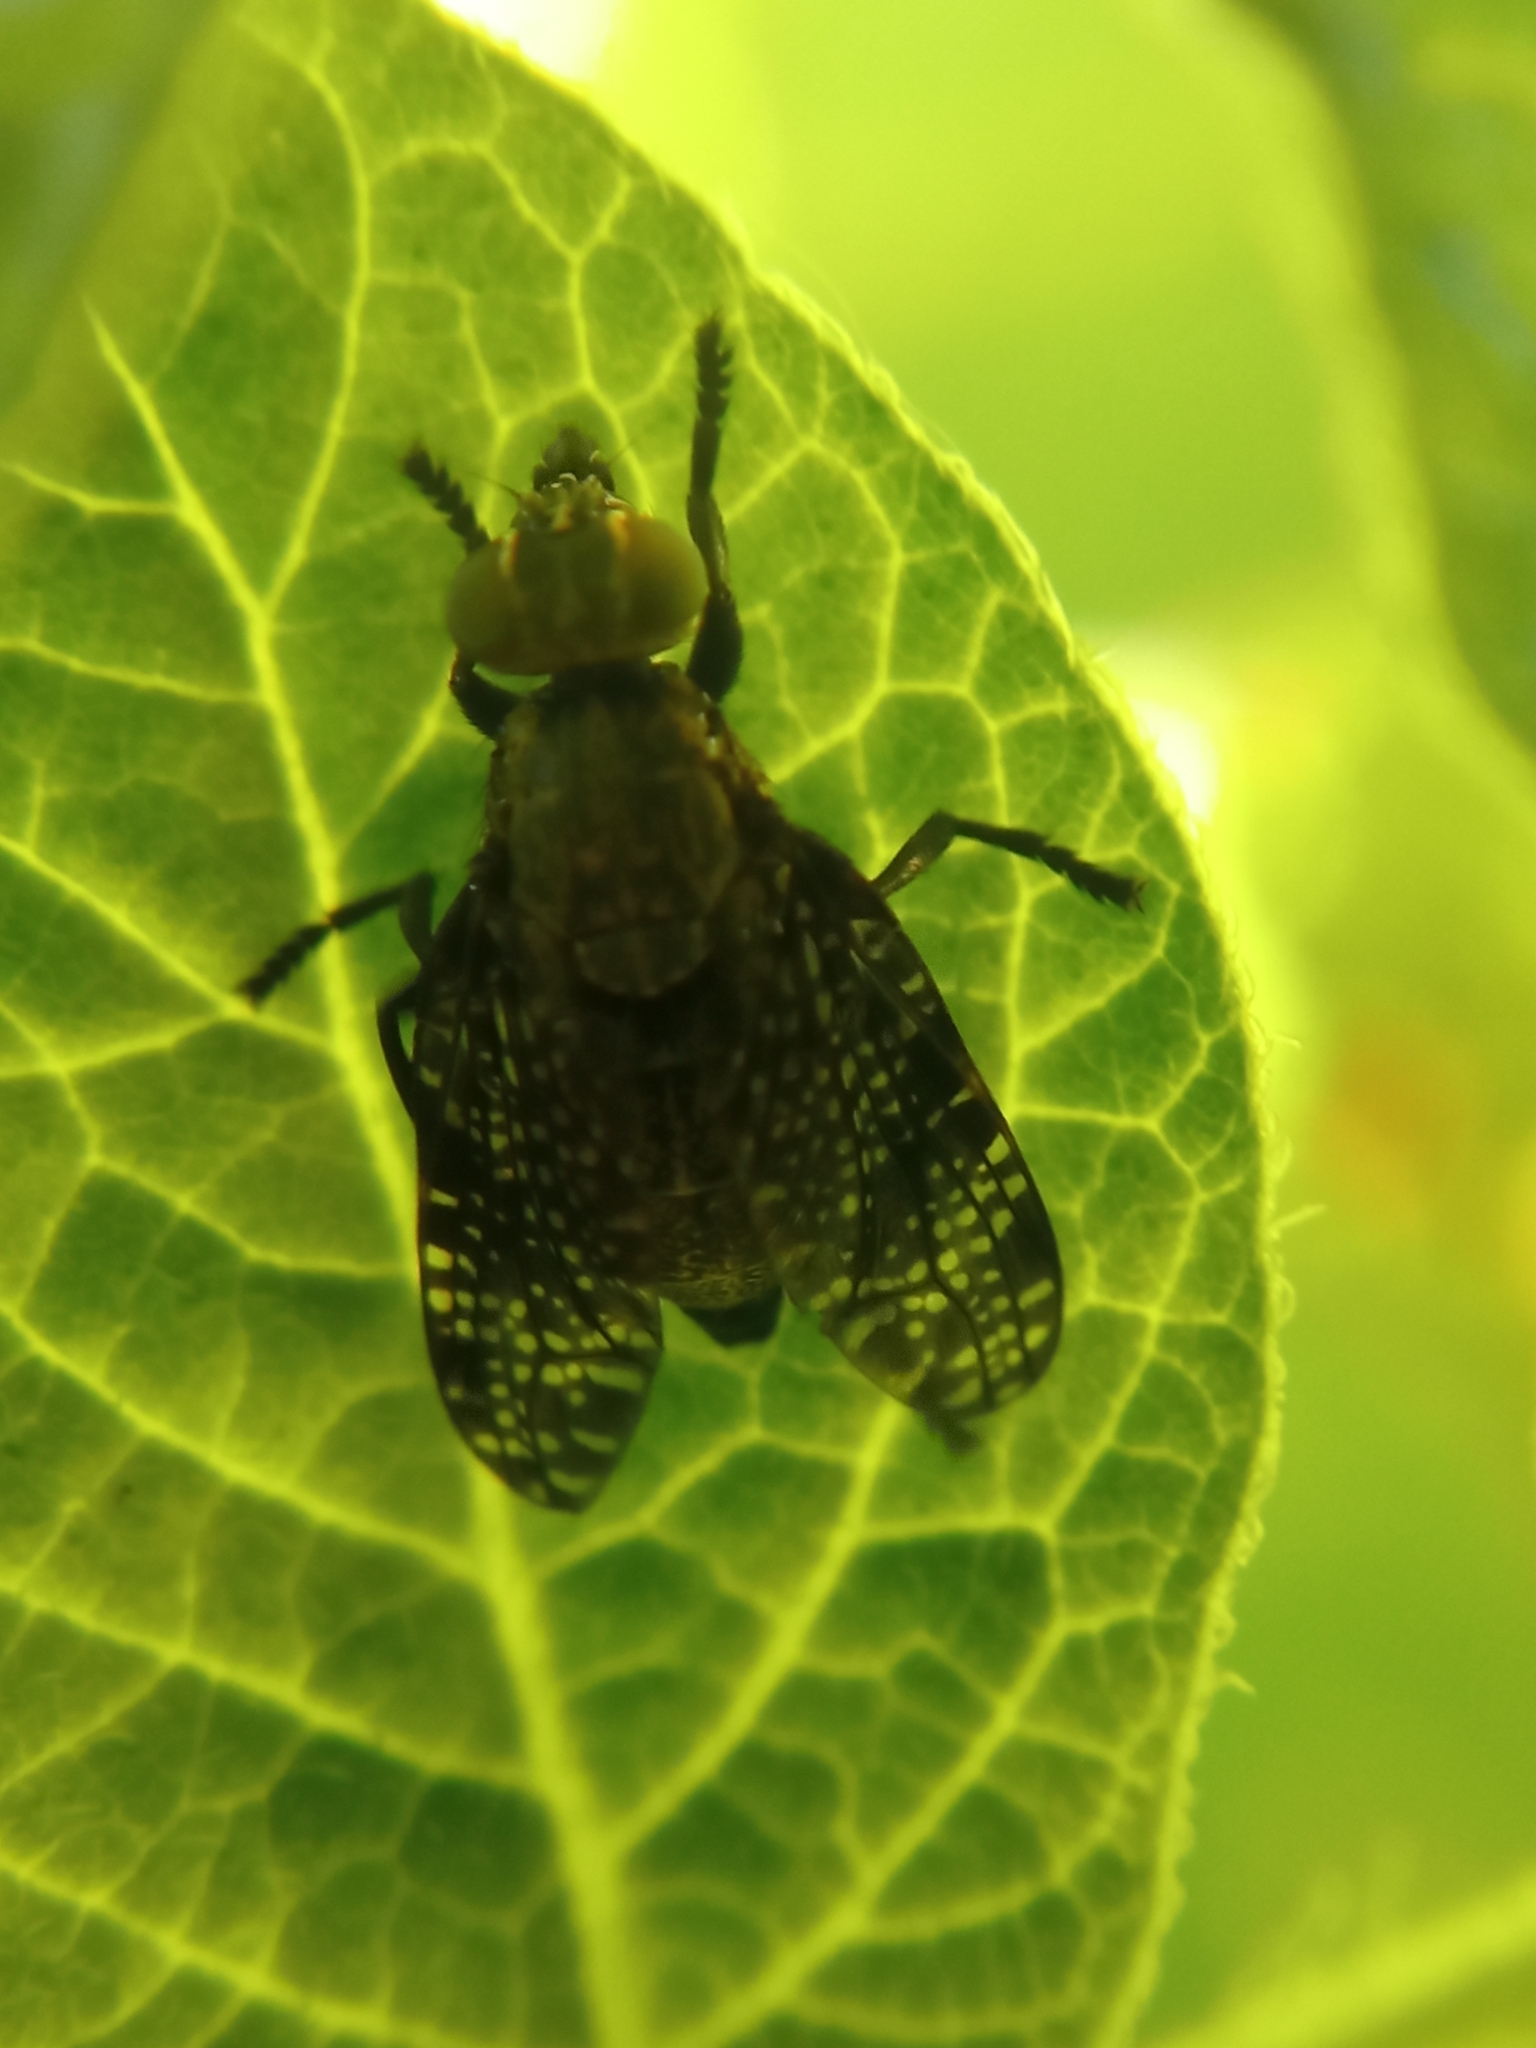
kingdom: Animalia
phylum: Arthropoda
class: Insecta
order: Diptera
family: Platystomatidae
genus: Platystoma
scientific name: Platystoma seminationis
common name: Fly
